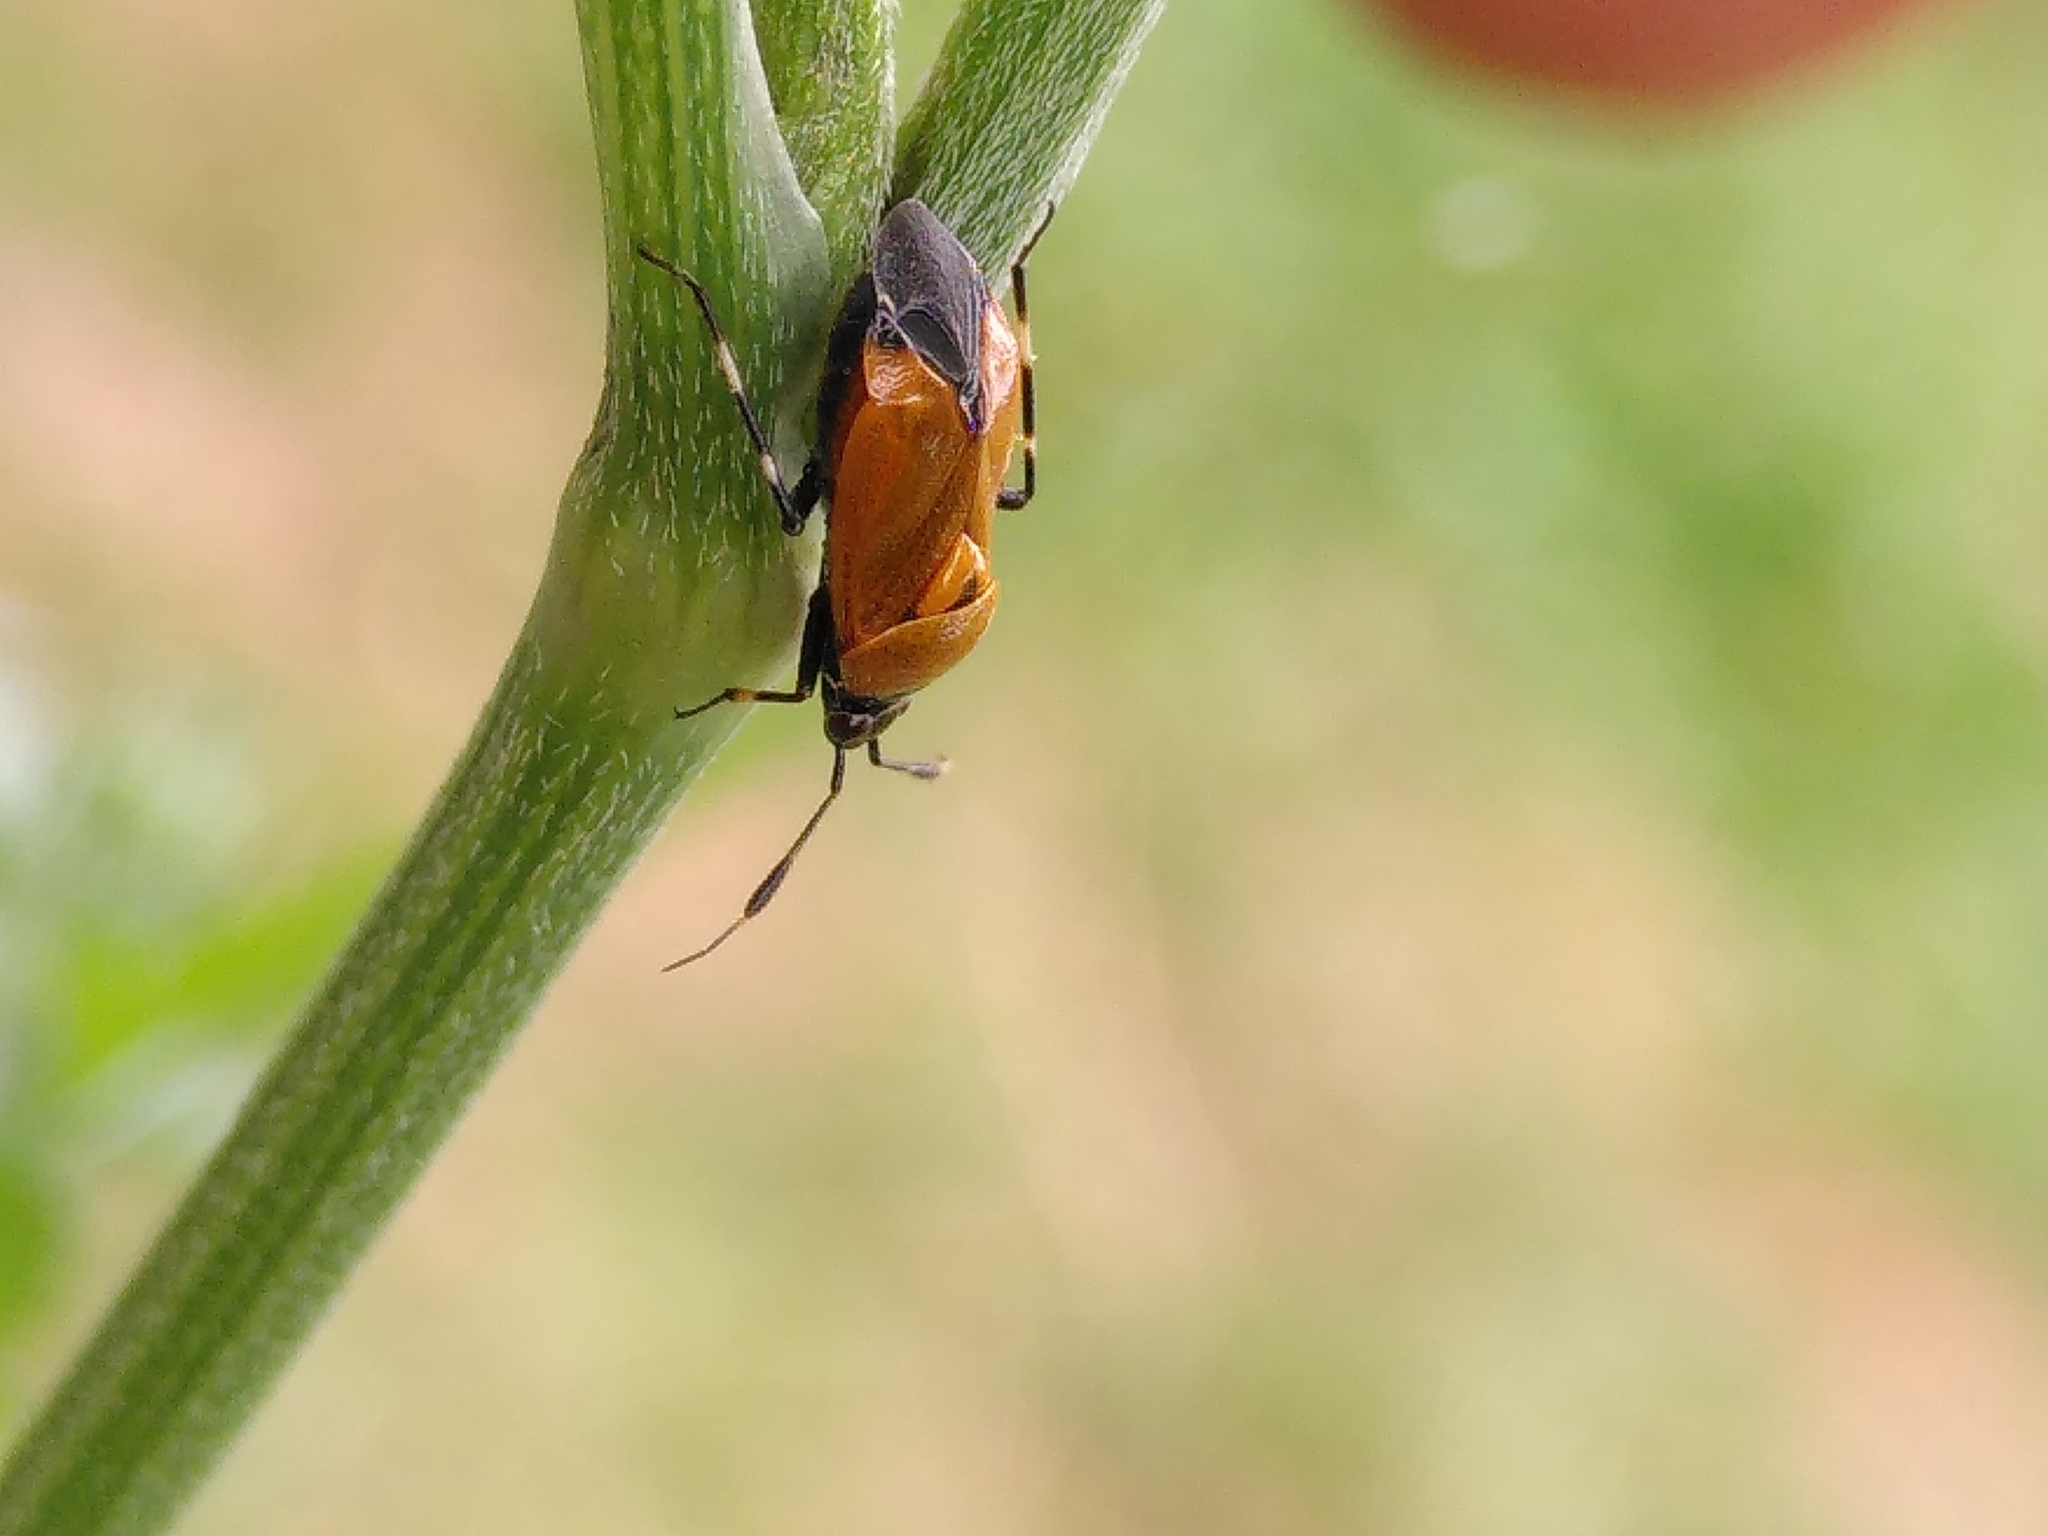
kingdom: Animalia
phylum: Arthropoda
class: Insecta
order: Hemiptera
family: Miridae
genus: Deraeocoris
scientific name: Deraeocoris punctum
